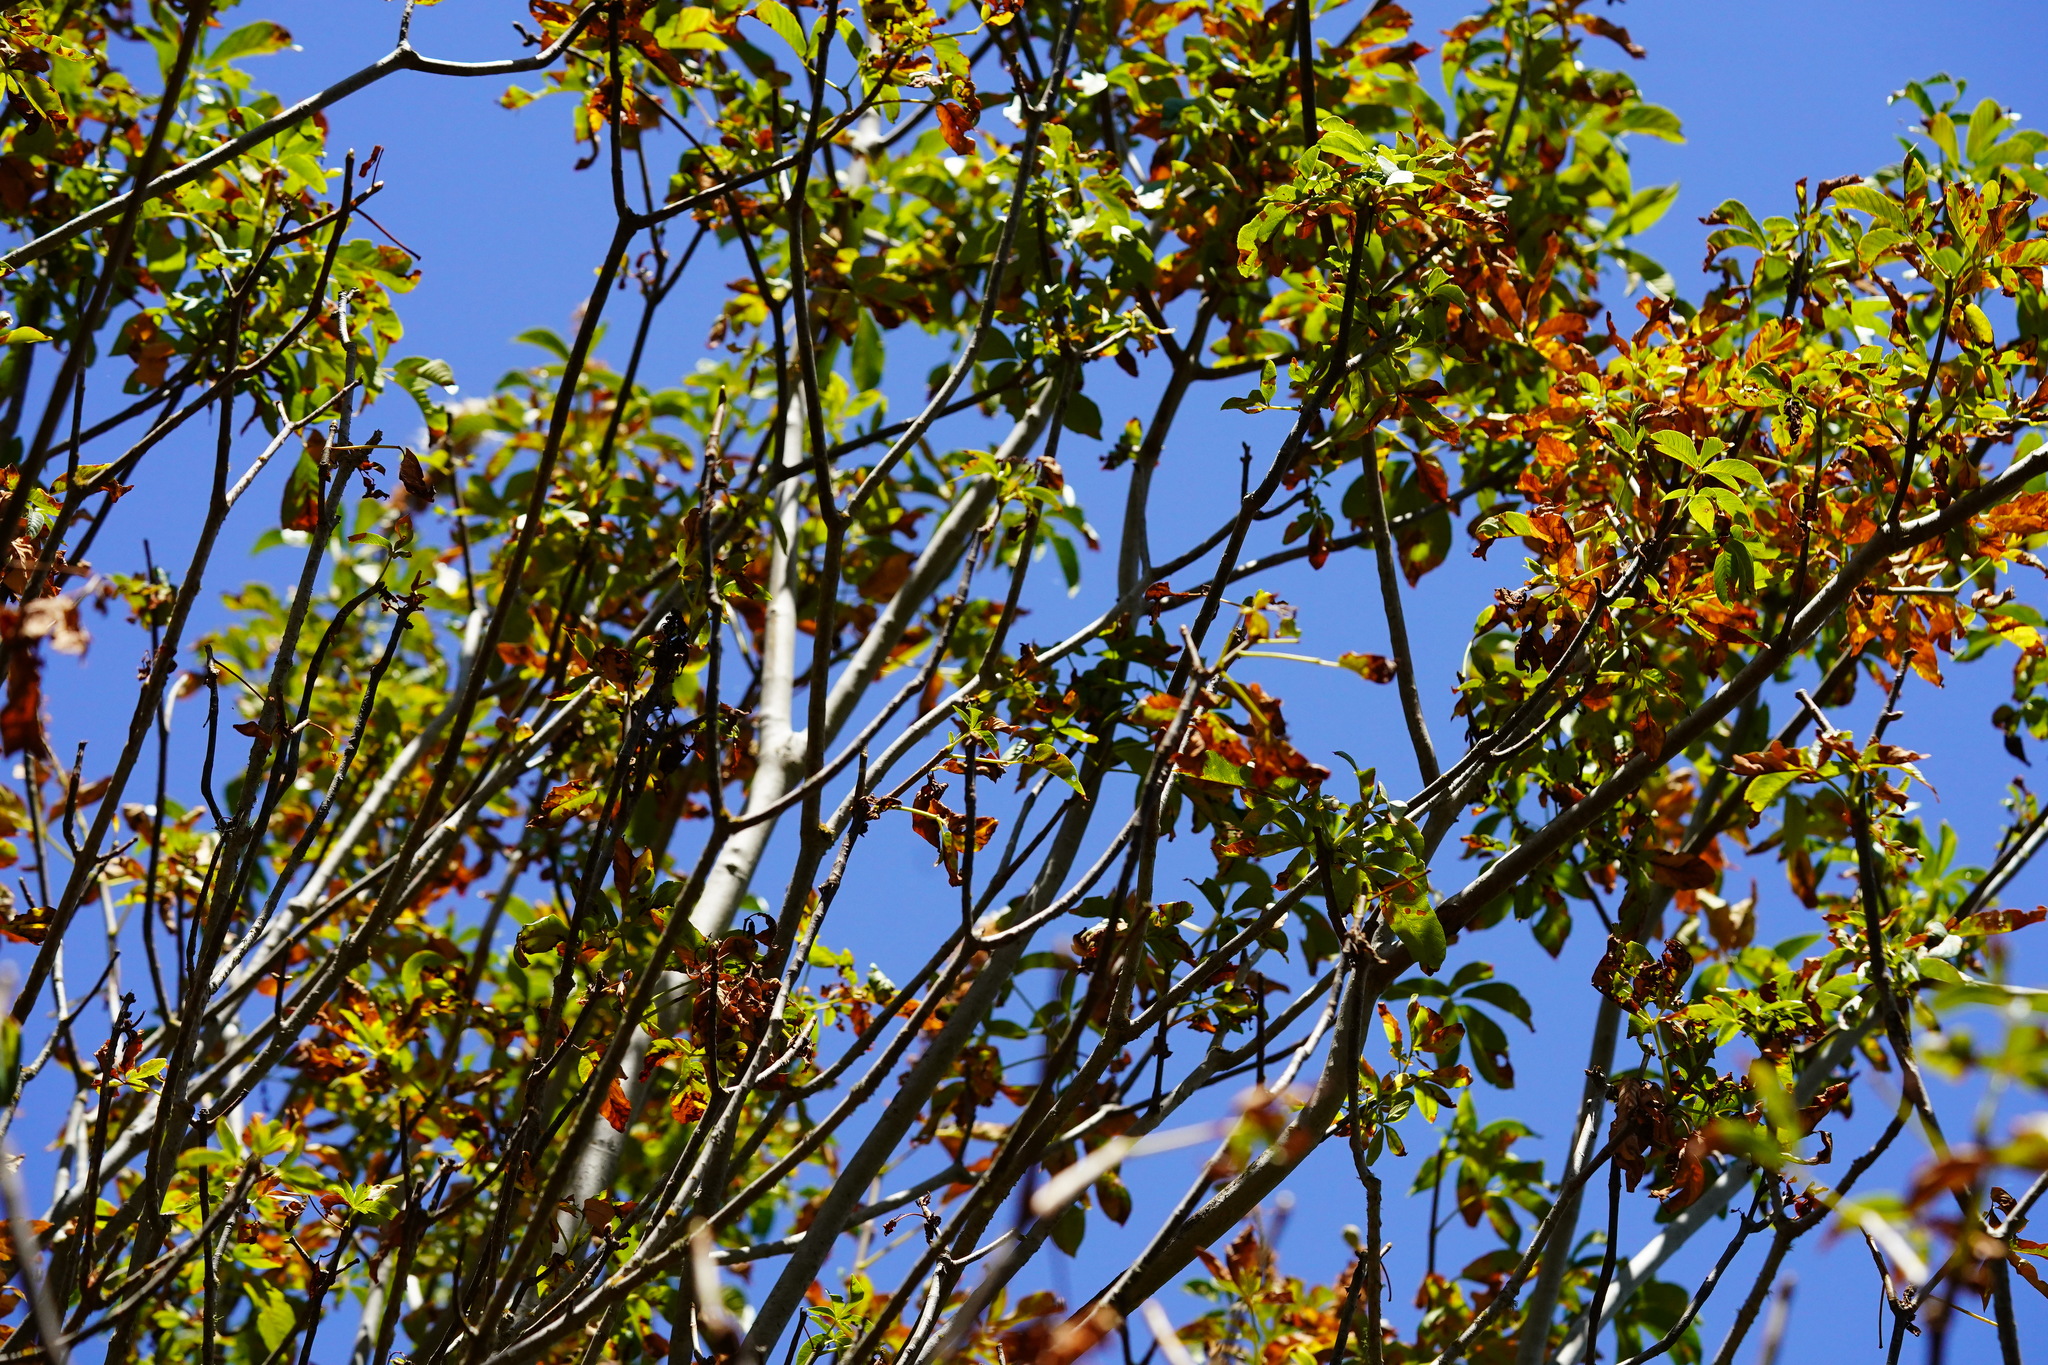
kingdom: Plantae
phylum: Tracheophyta
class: Magnoliopsida
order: Sapindales
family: Sapindaceae
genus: Aesculus
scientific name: Aesculus californica
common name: California buckeye
